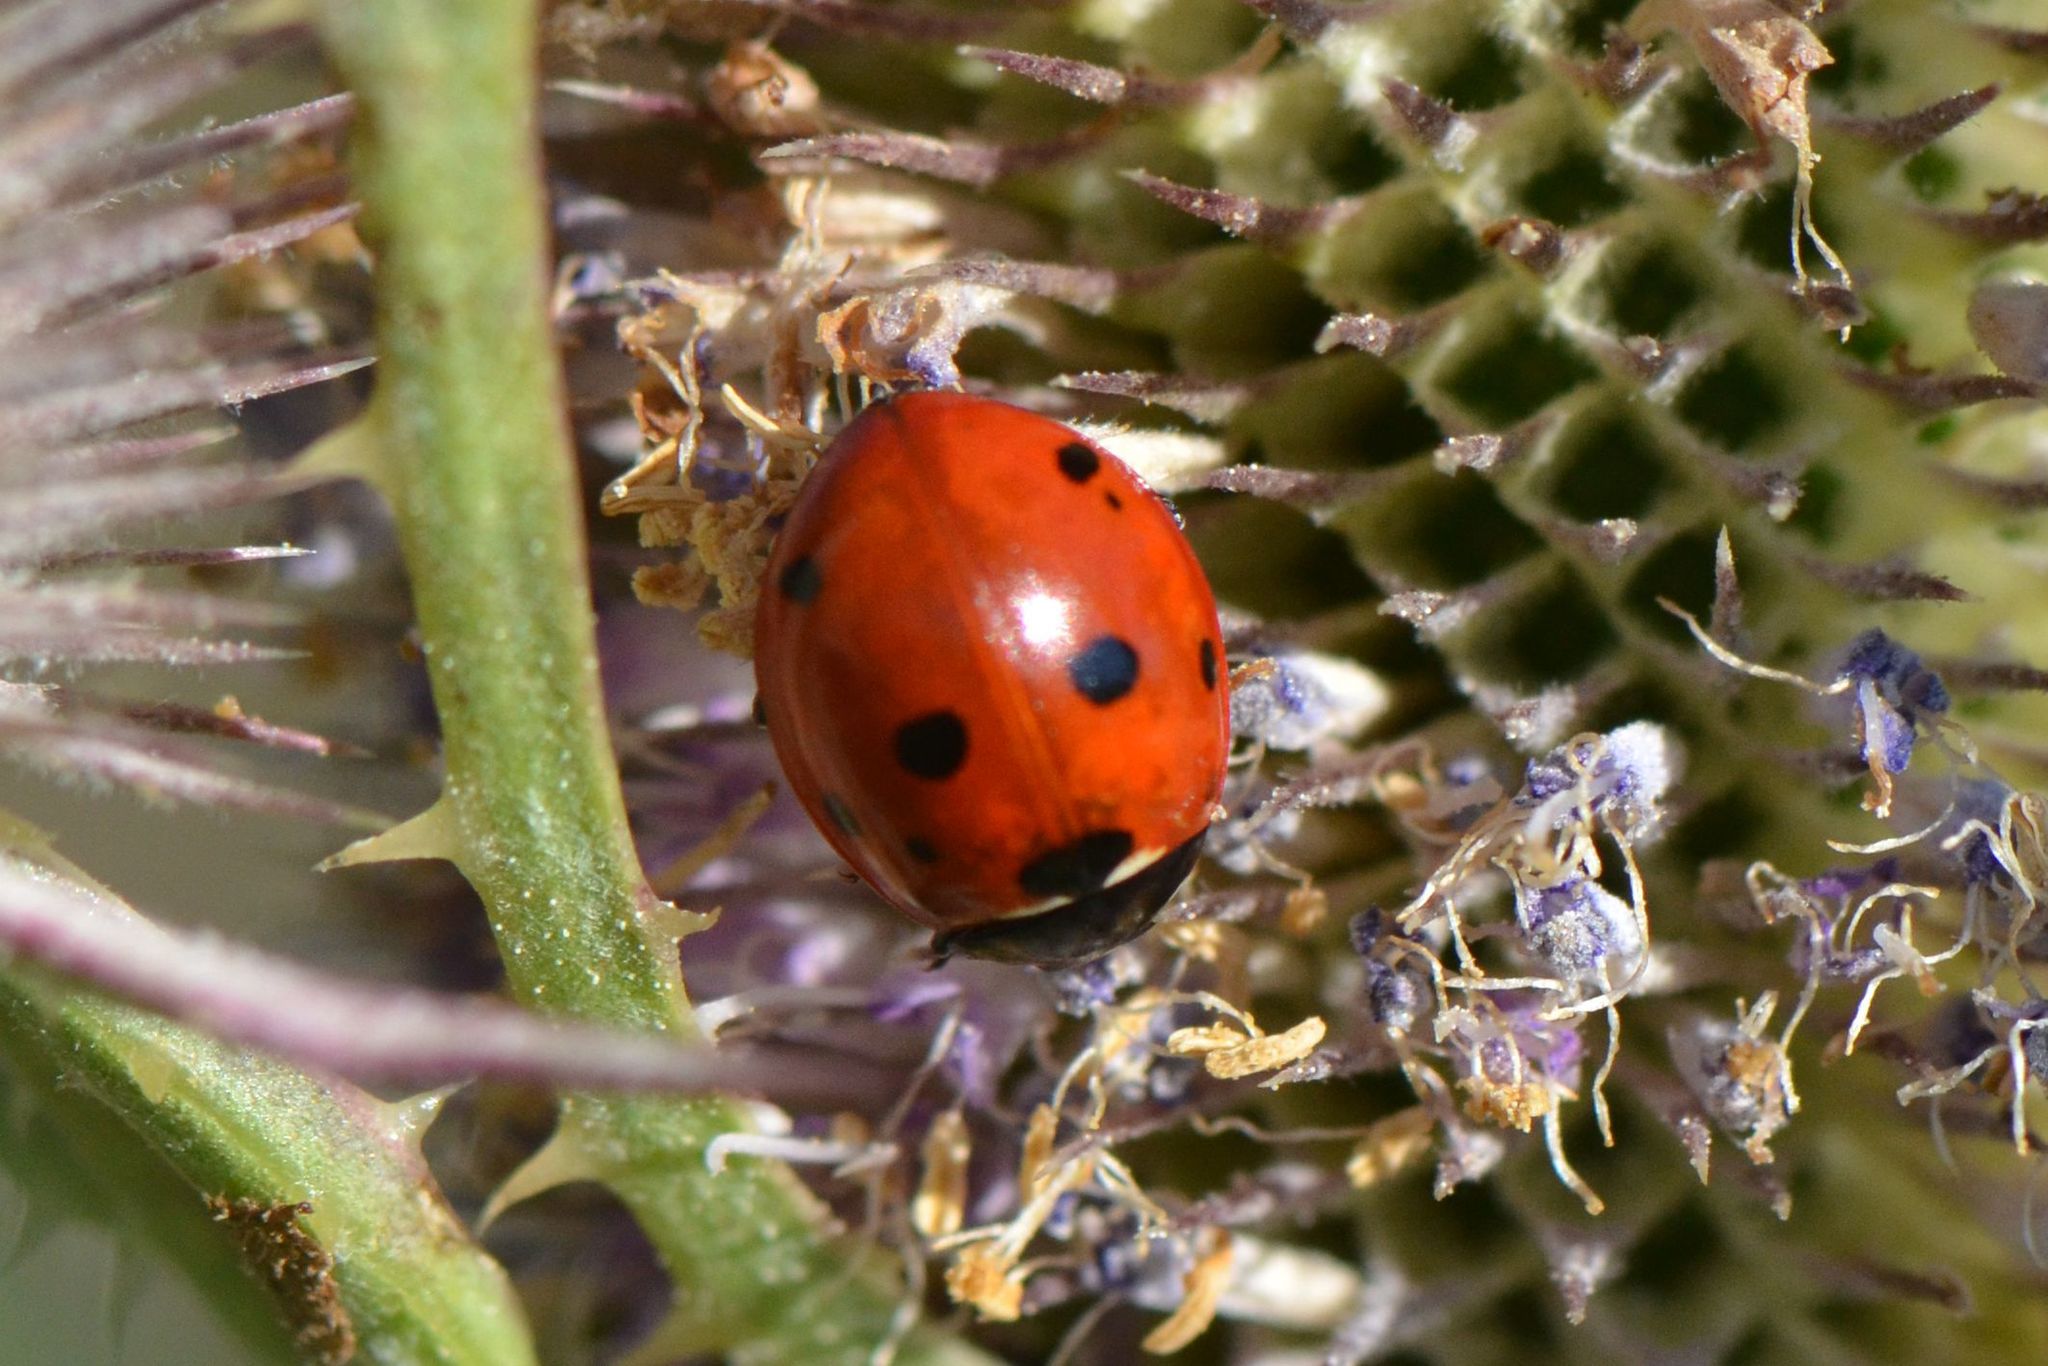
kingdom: Animalia
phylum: Arthropoda
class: Insecta
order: Coleoptera
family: Coccinellidae
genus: Coccinella
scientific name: Coccinella septempunctata
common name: Sevenspotted lady beetle
